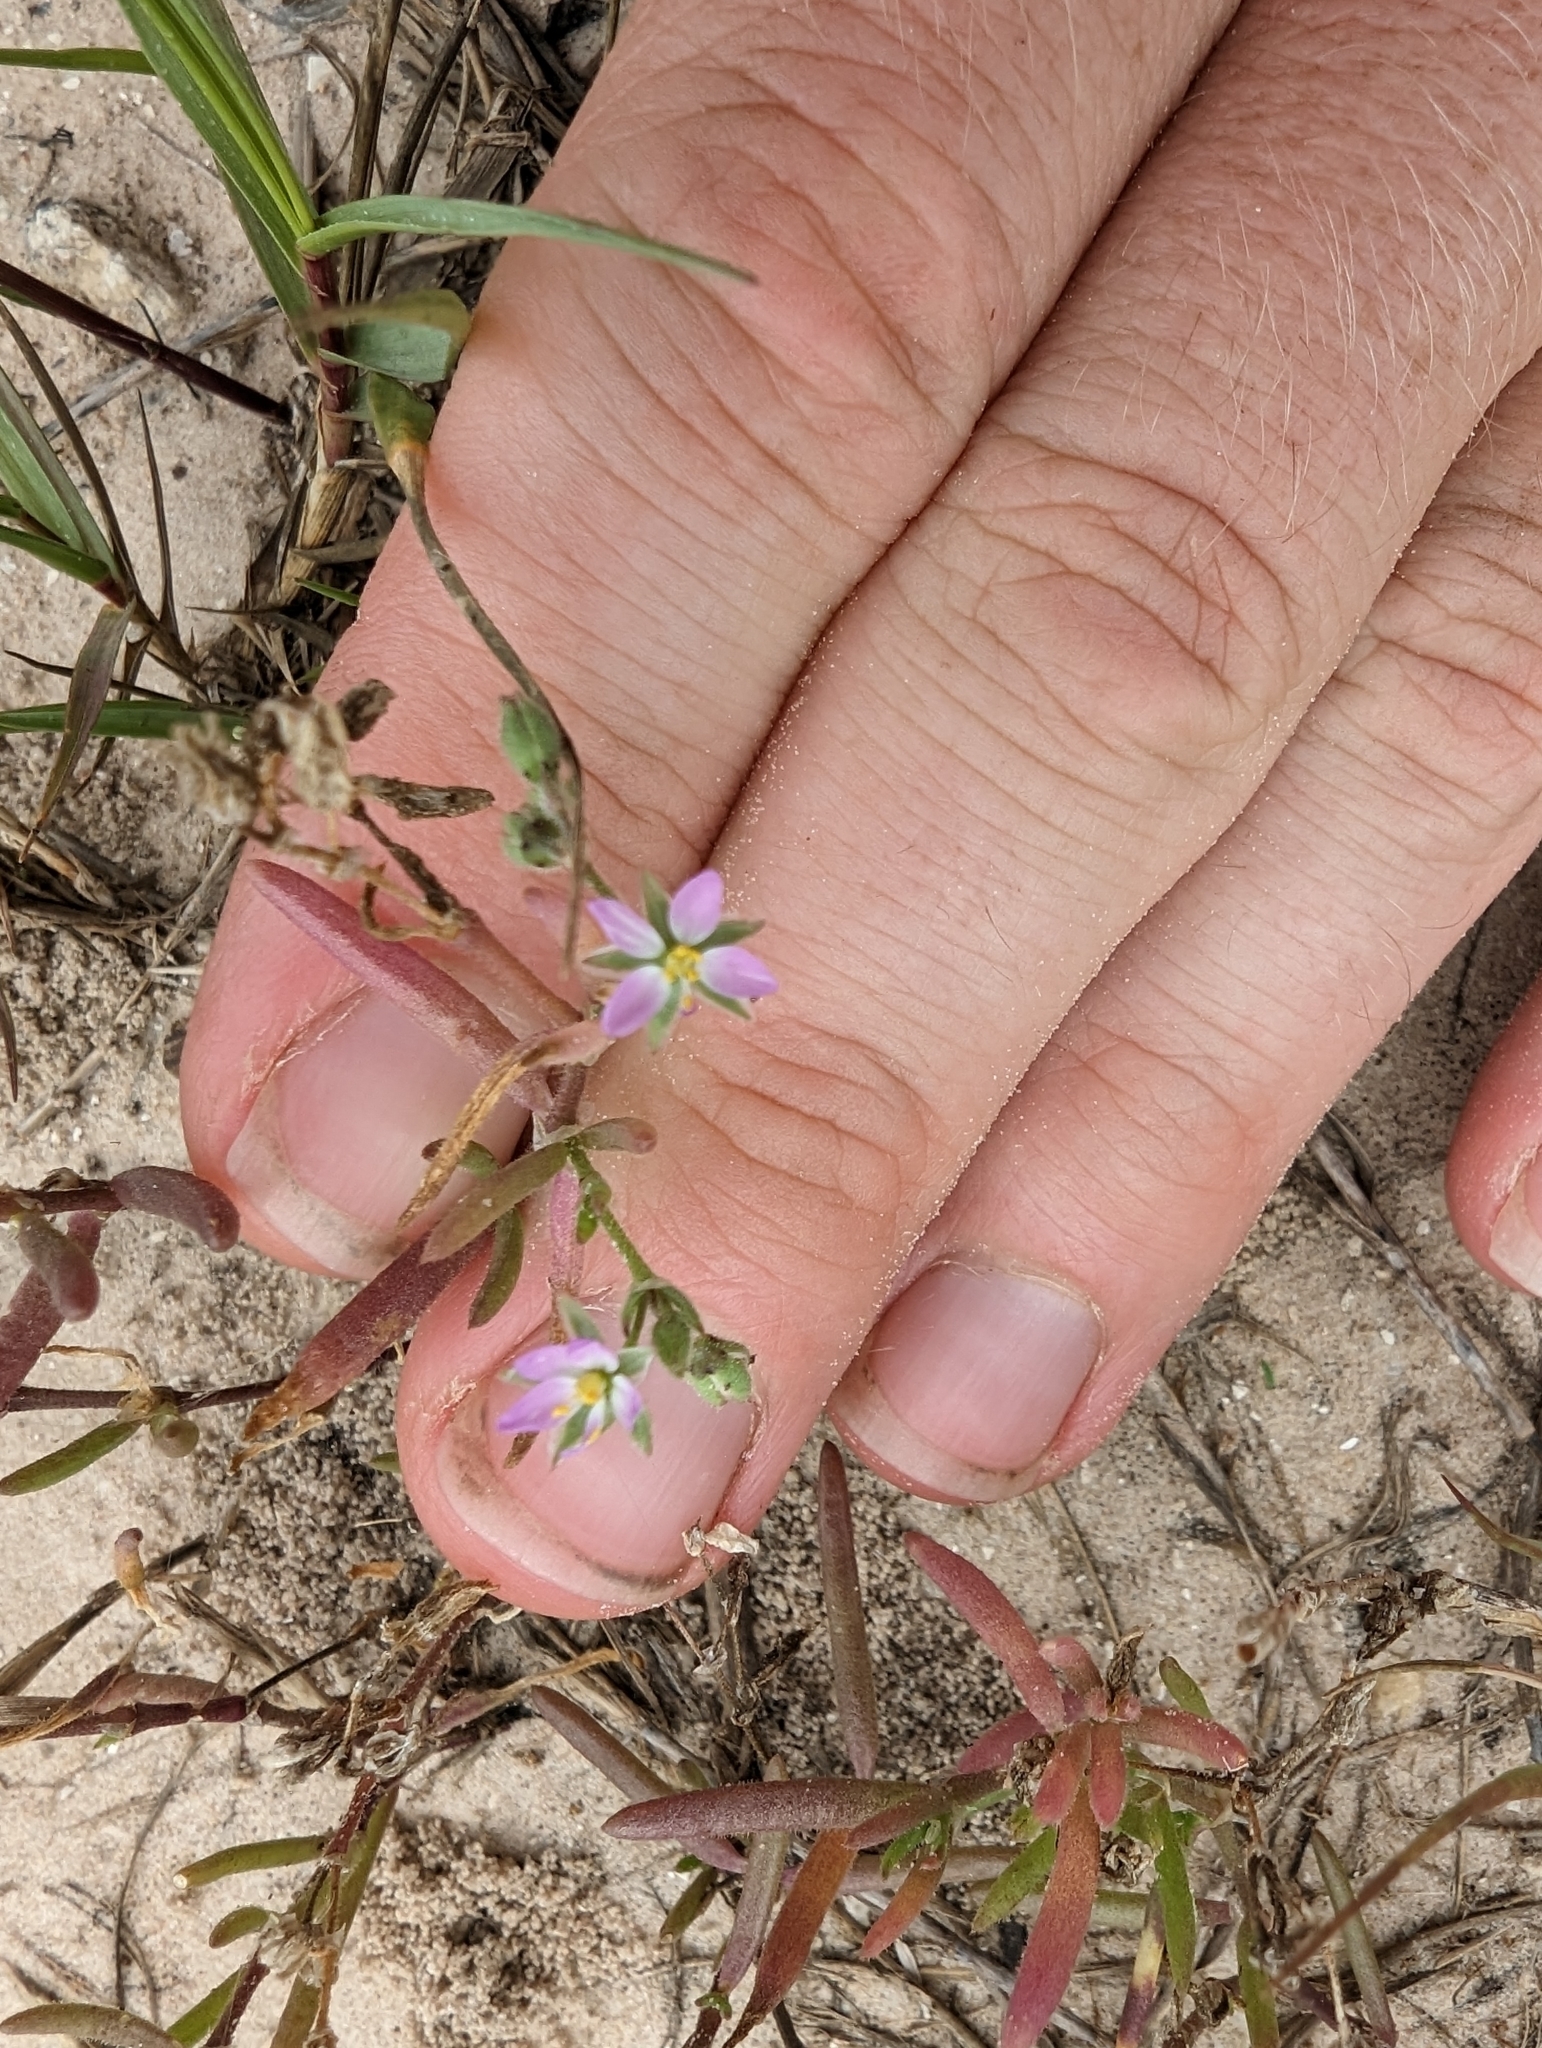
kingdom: Plantae
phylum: Tracheophyta
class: Magnoliopsida
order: Caryophyllales
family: Caryophyllaceae
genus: Spergularia
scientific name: Spergularia marina
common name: Lesser sea-spurrey
